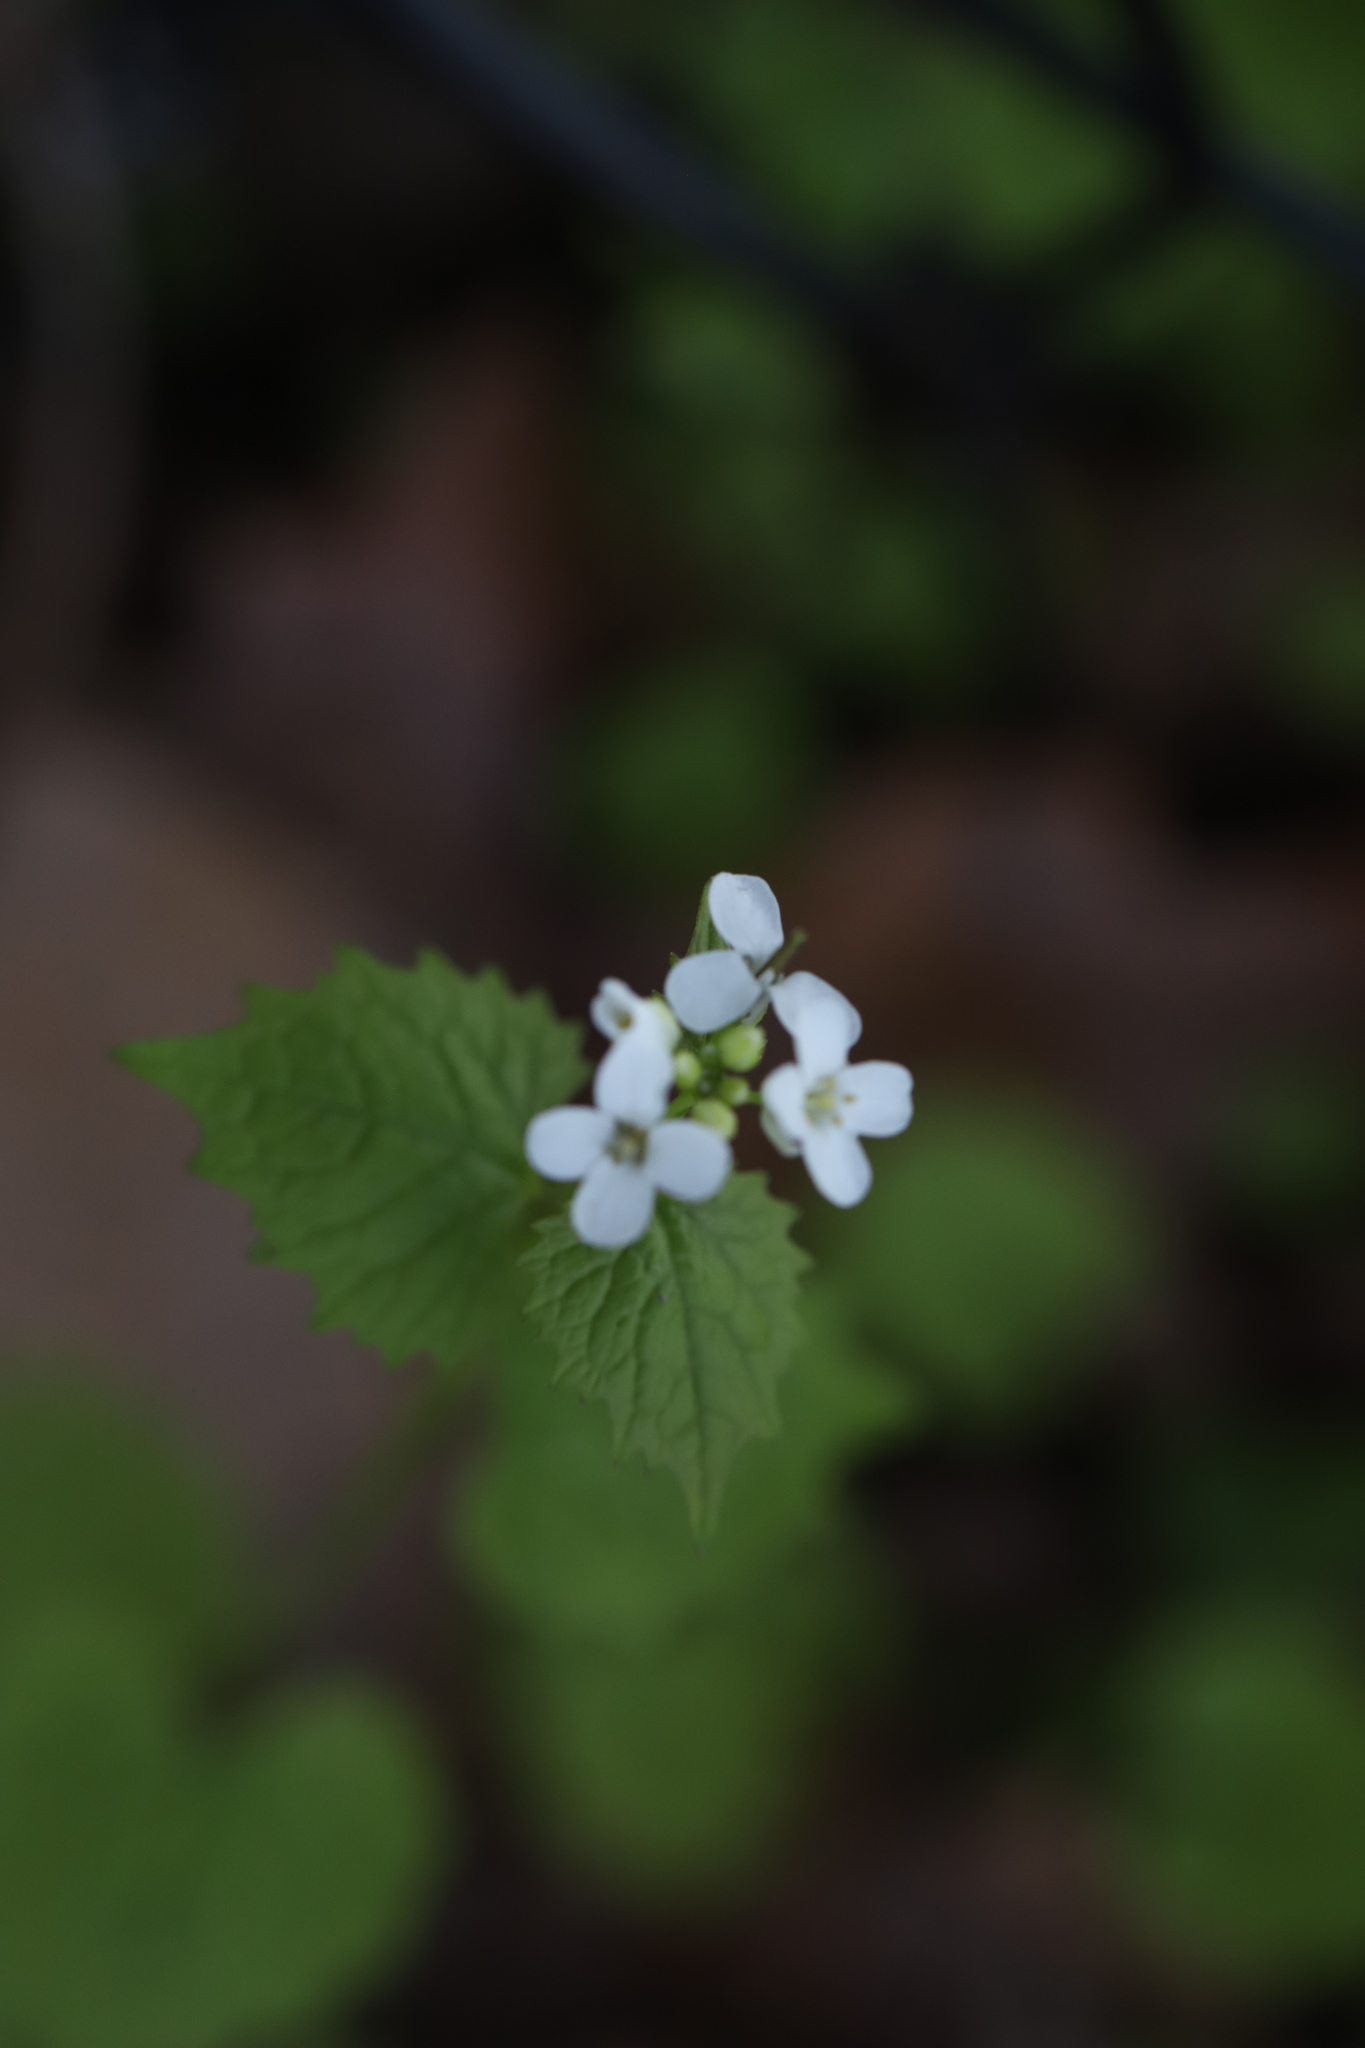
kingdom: Plantae
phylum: Tracheophyta
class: Magnoliopsida
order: Brassicales
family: Brassicaceae
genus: Alliaria
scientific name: Alliaria petiolata
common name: Garlic mustard
